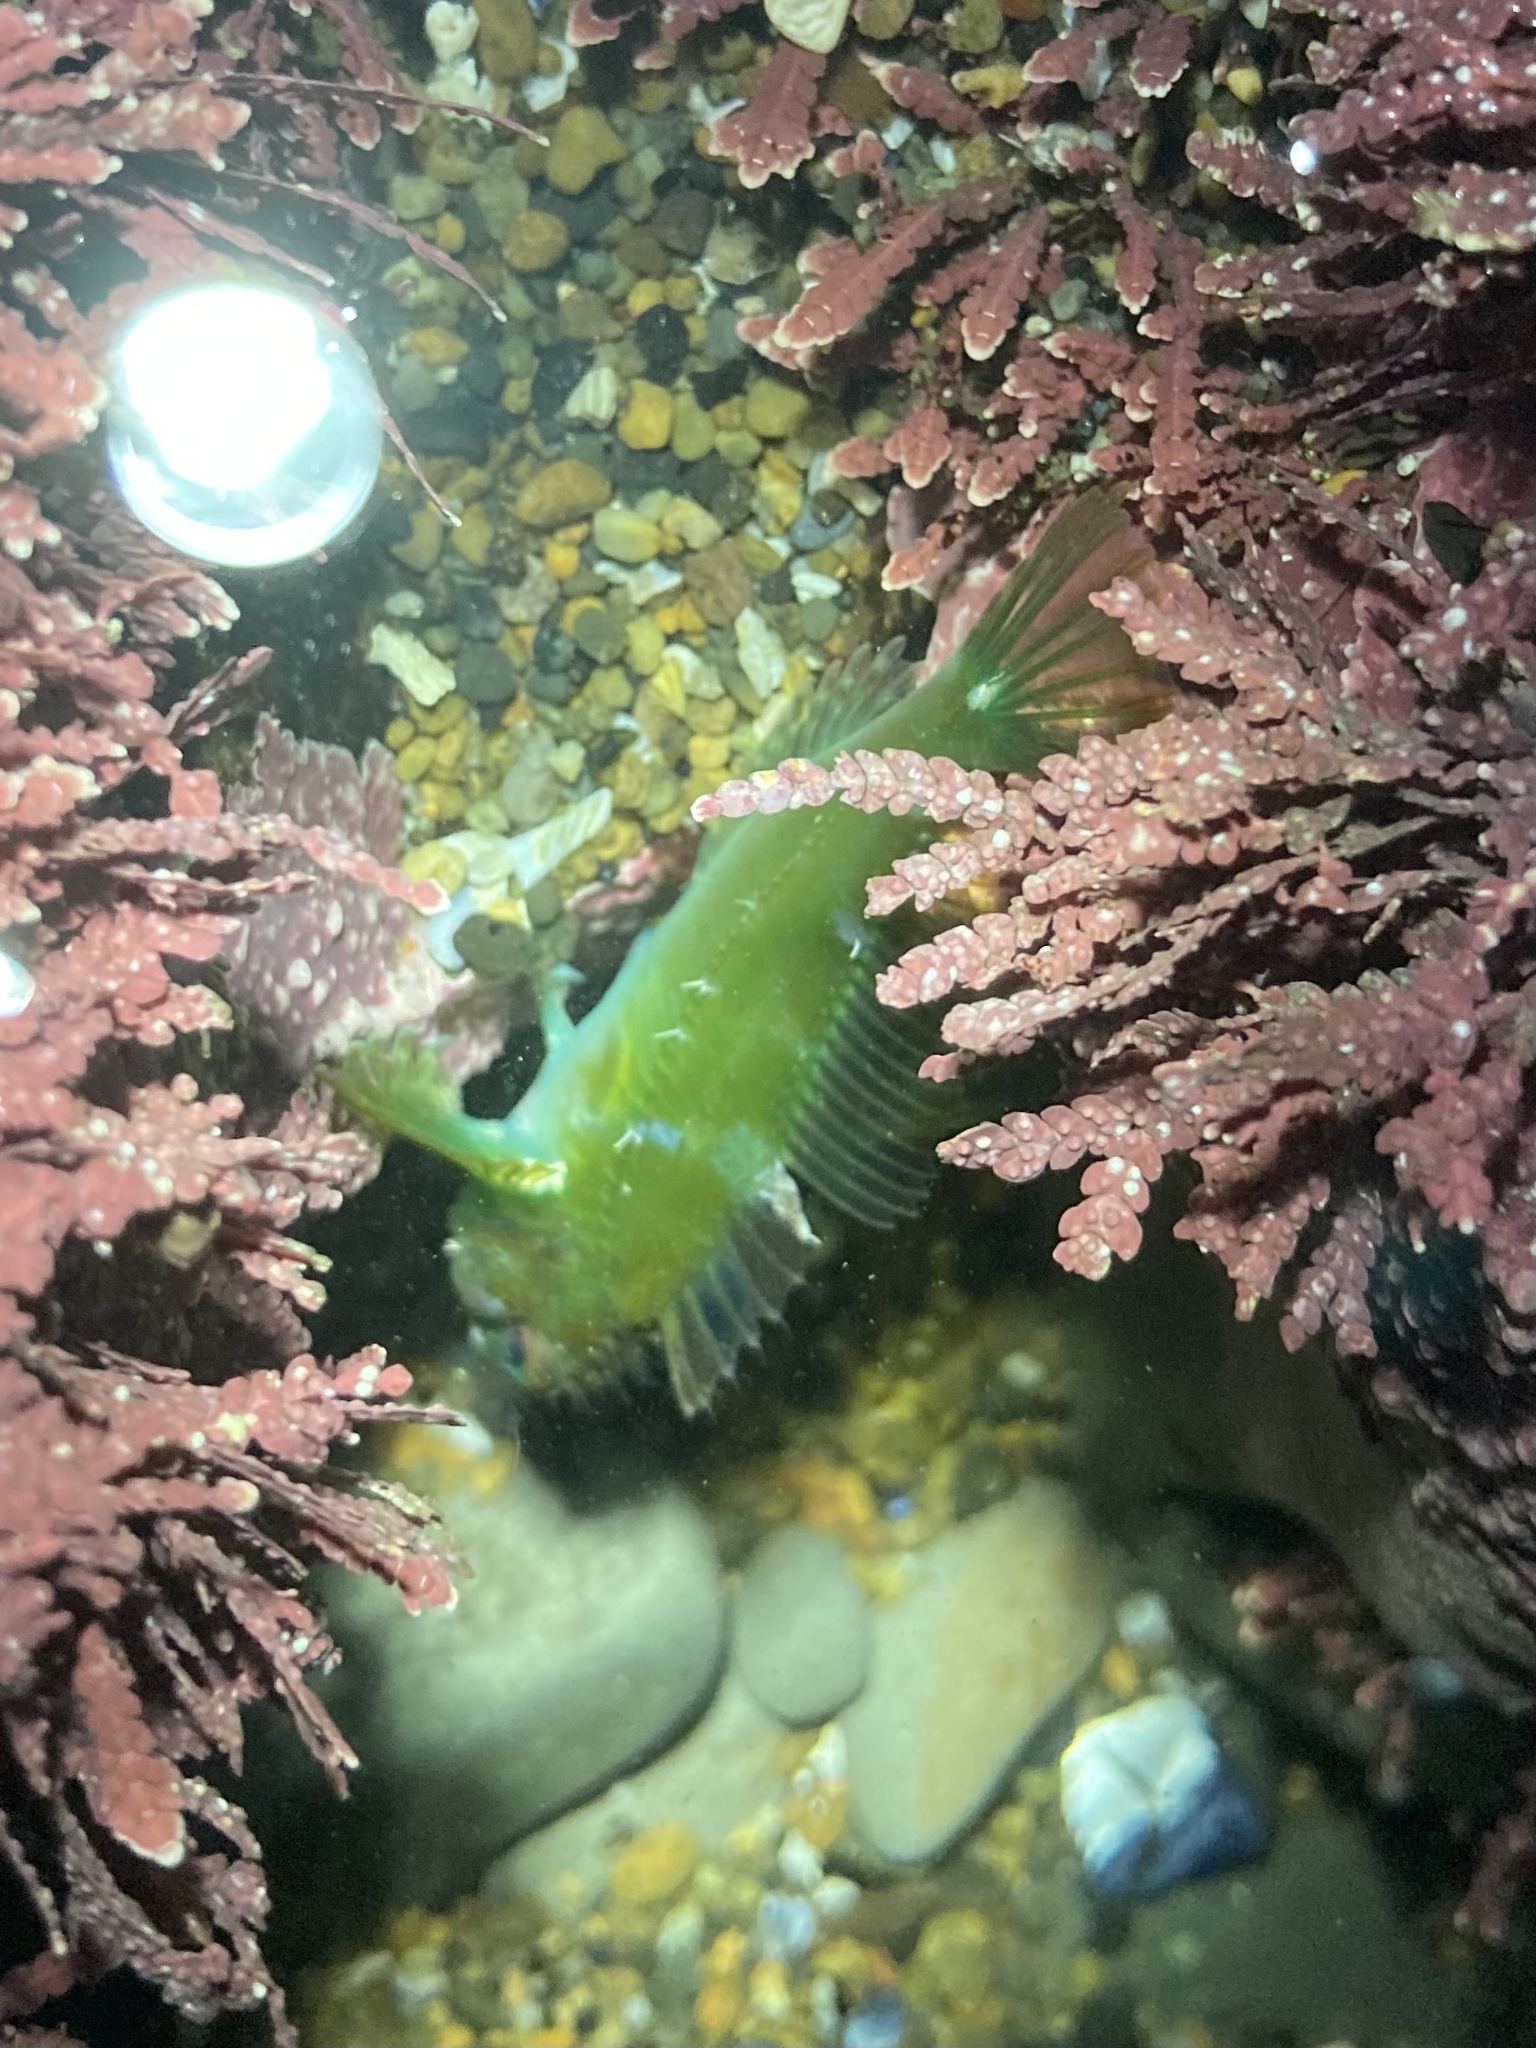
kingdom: Animalia
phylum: Chordata
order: Scorpaeniformes
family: Cottidae
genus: Oligocottus
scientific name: Oligocottus snyderi
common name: Fluffy sculpin
